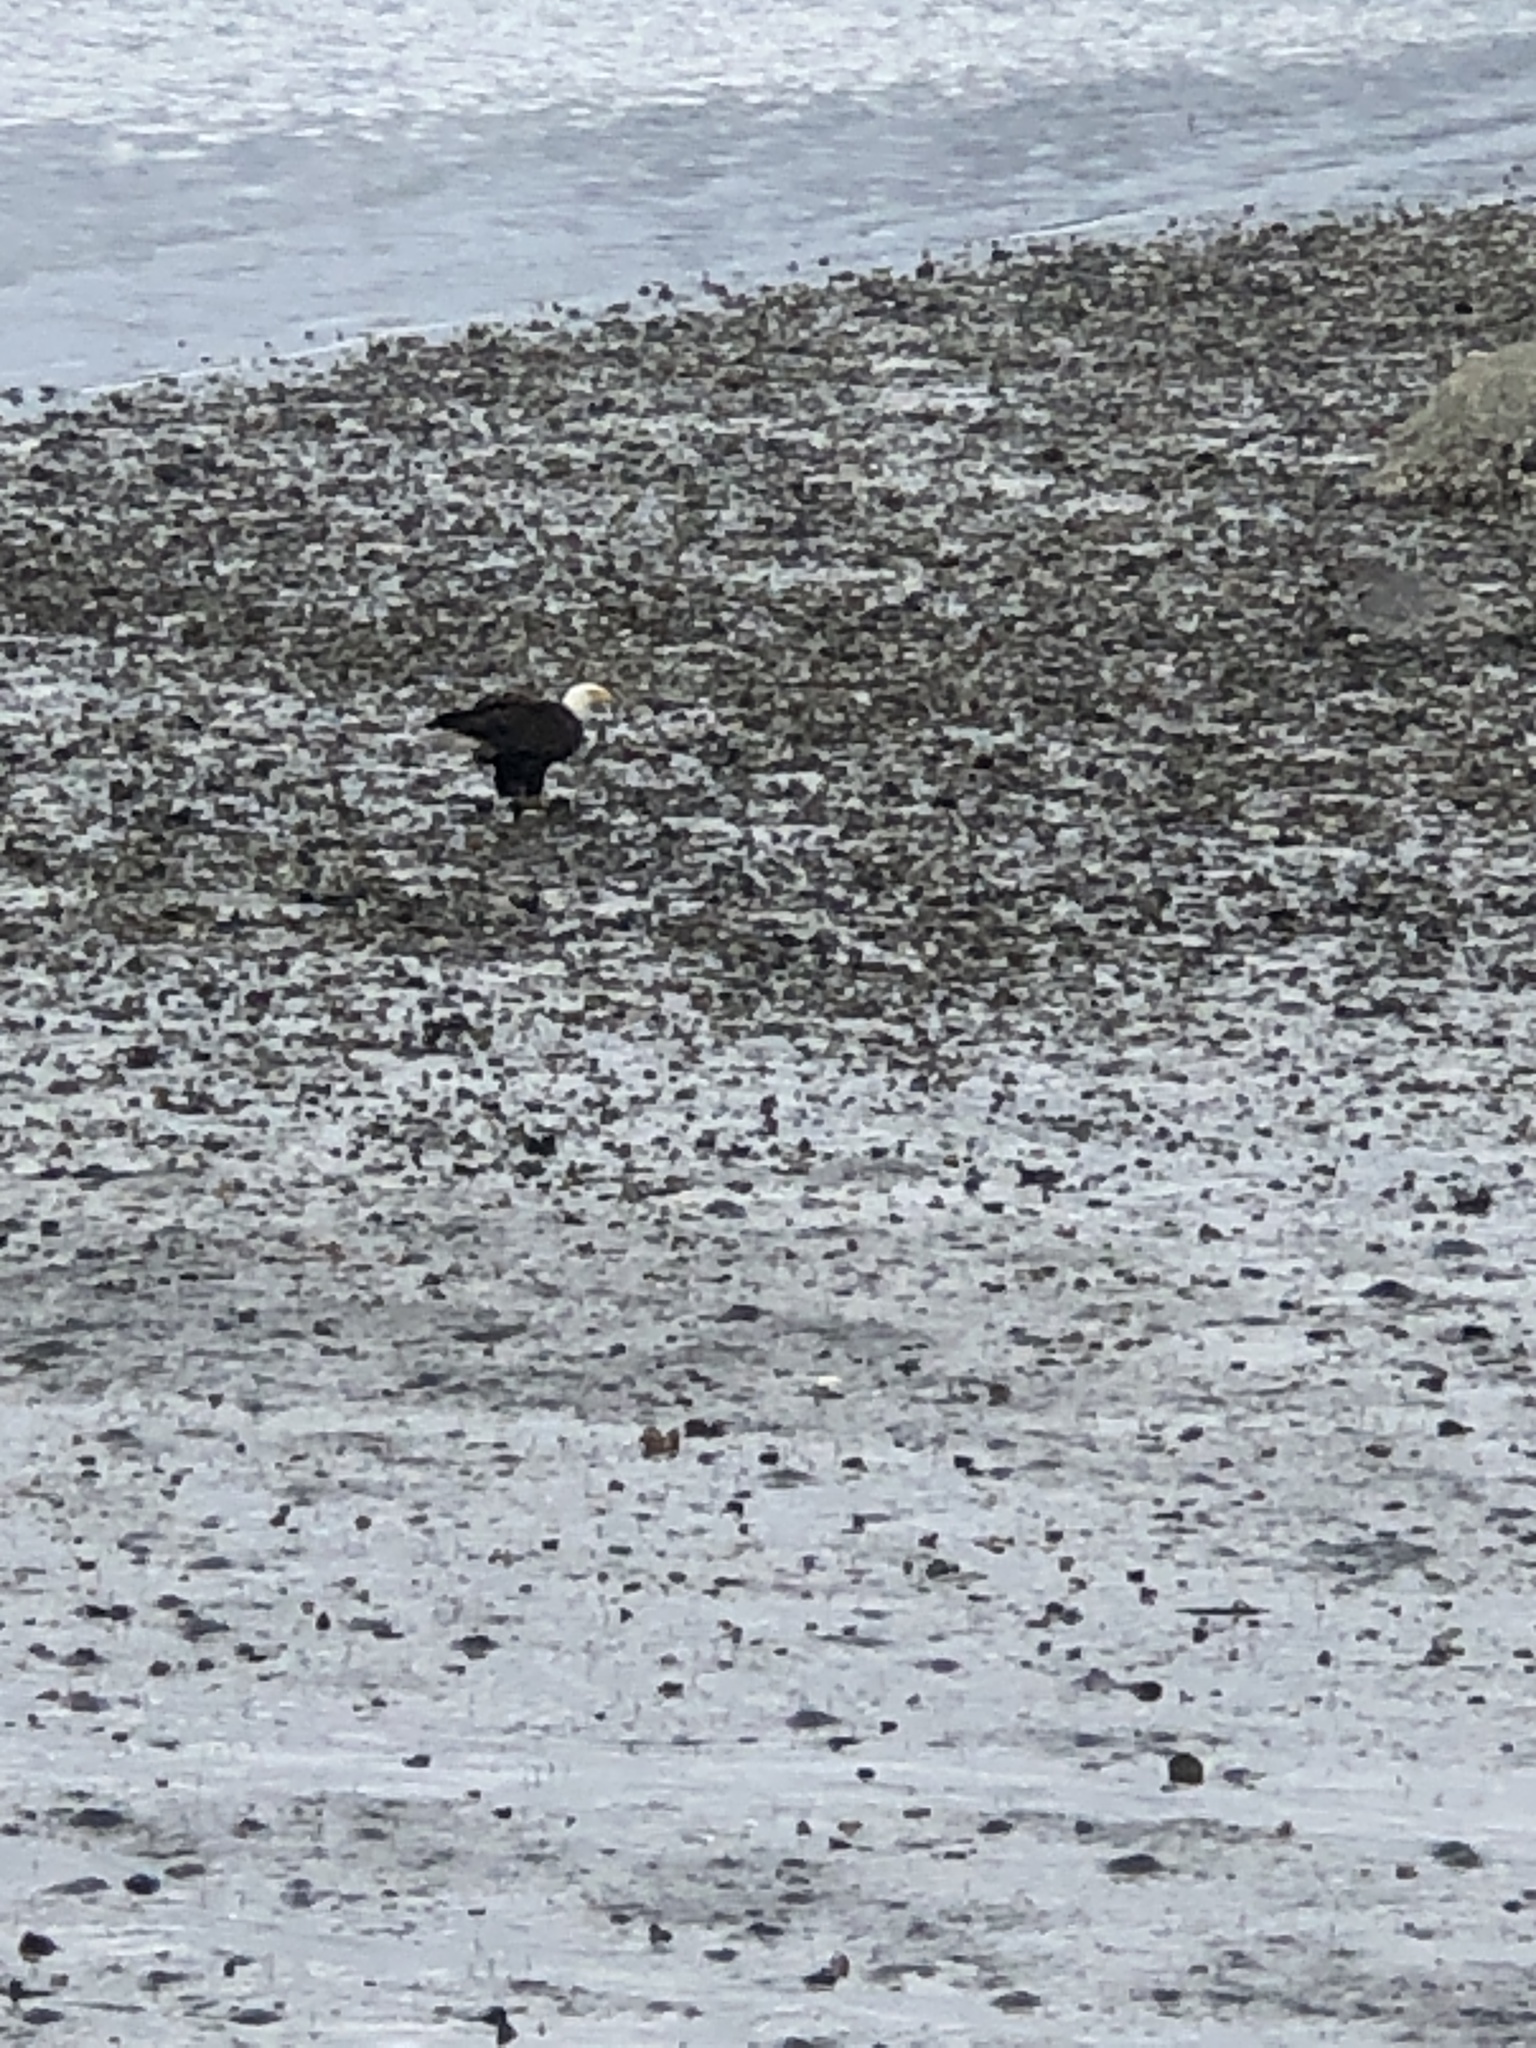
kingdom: Animalia
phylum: Chordata
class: Aves
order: Accipitriformes
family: Accipitridae
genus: Haliaeetus
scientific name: Haliaeetus leucocephalus
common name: Bald eagle
